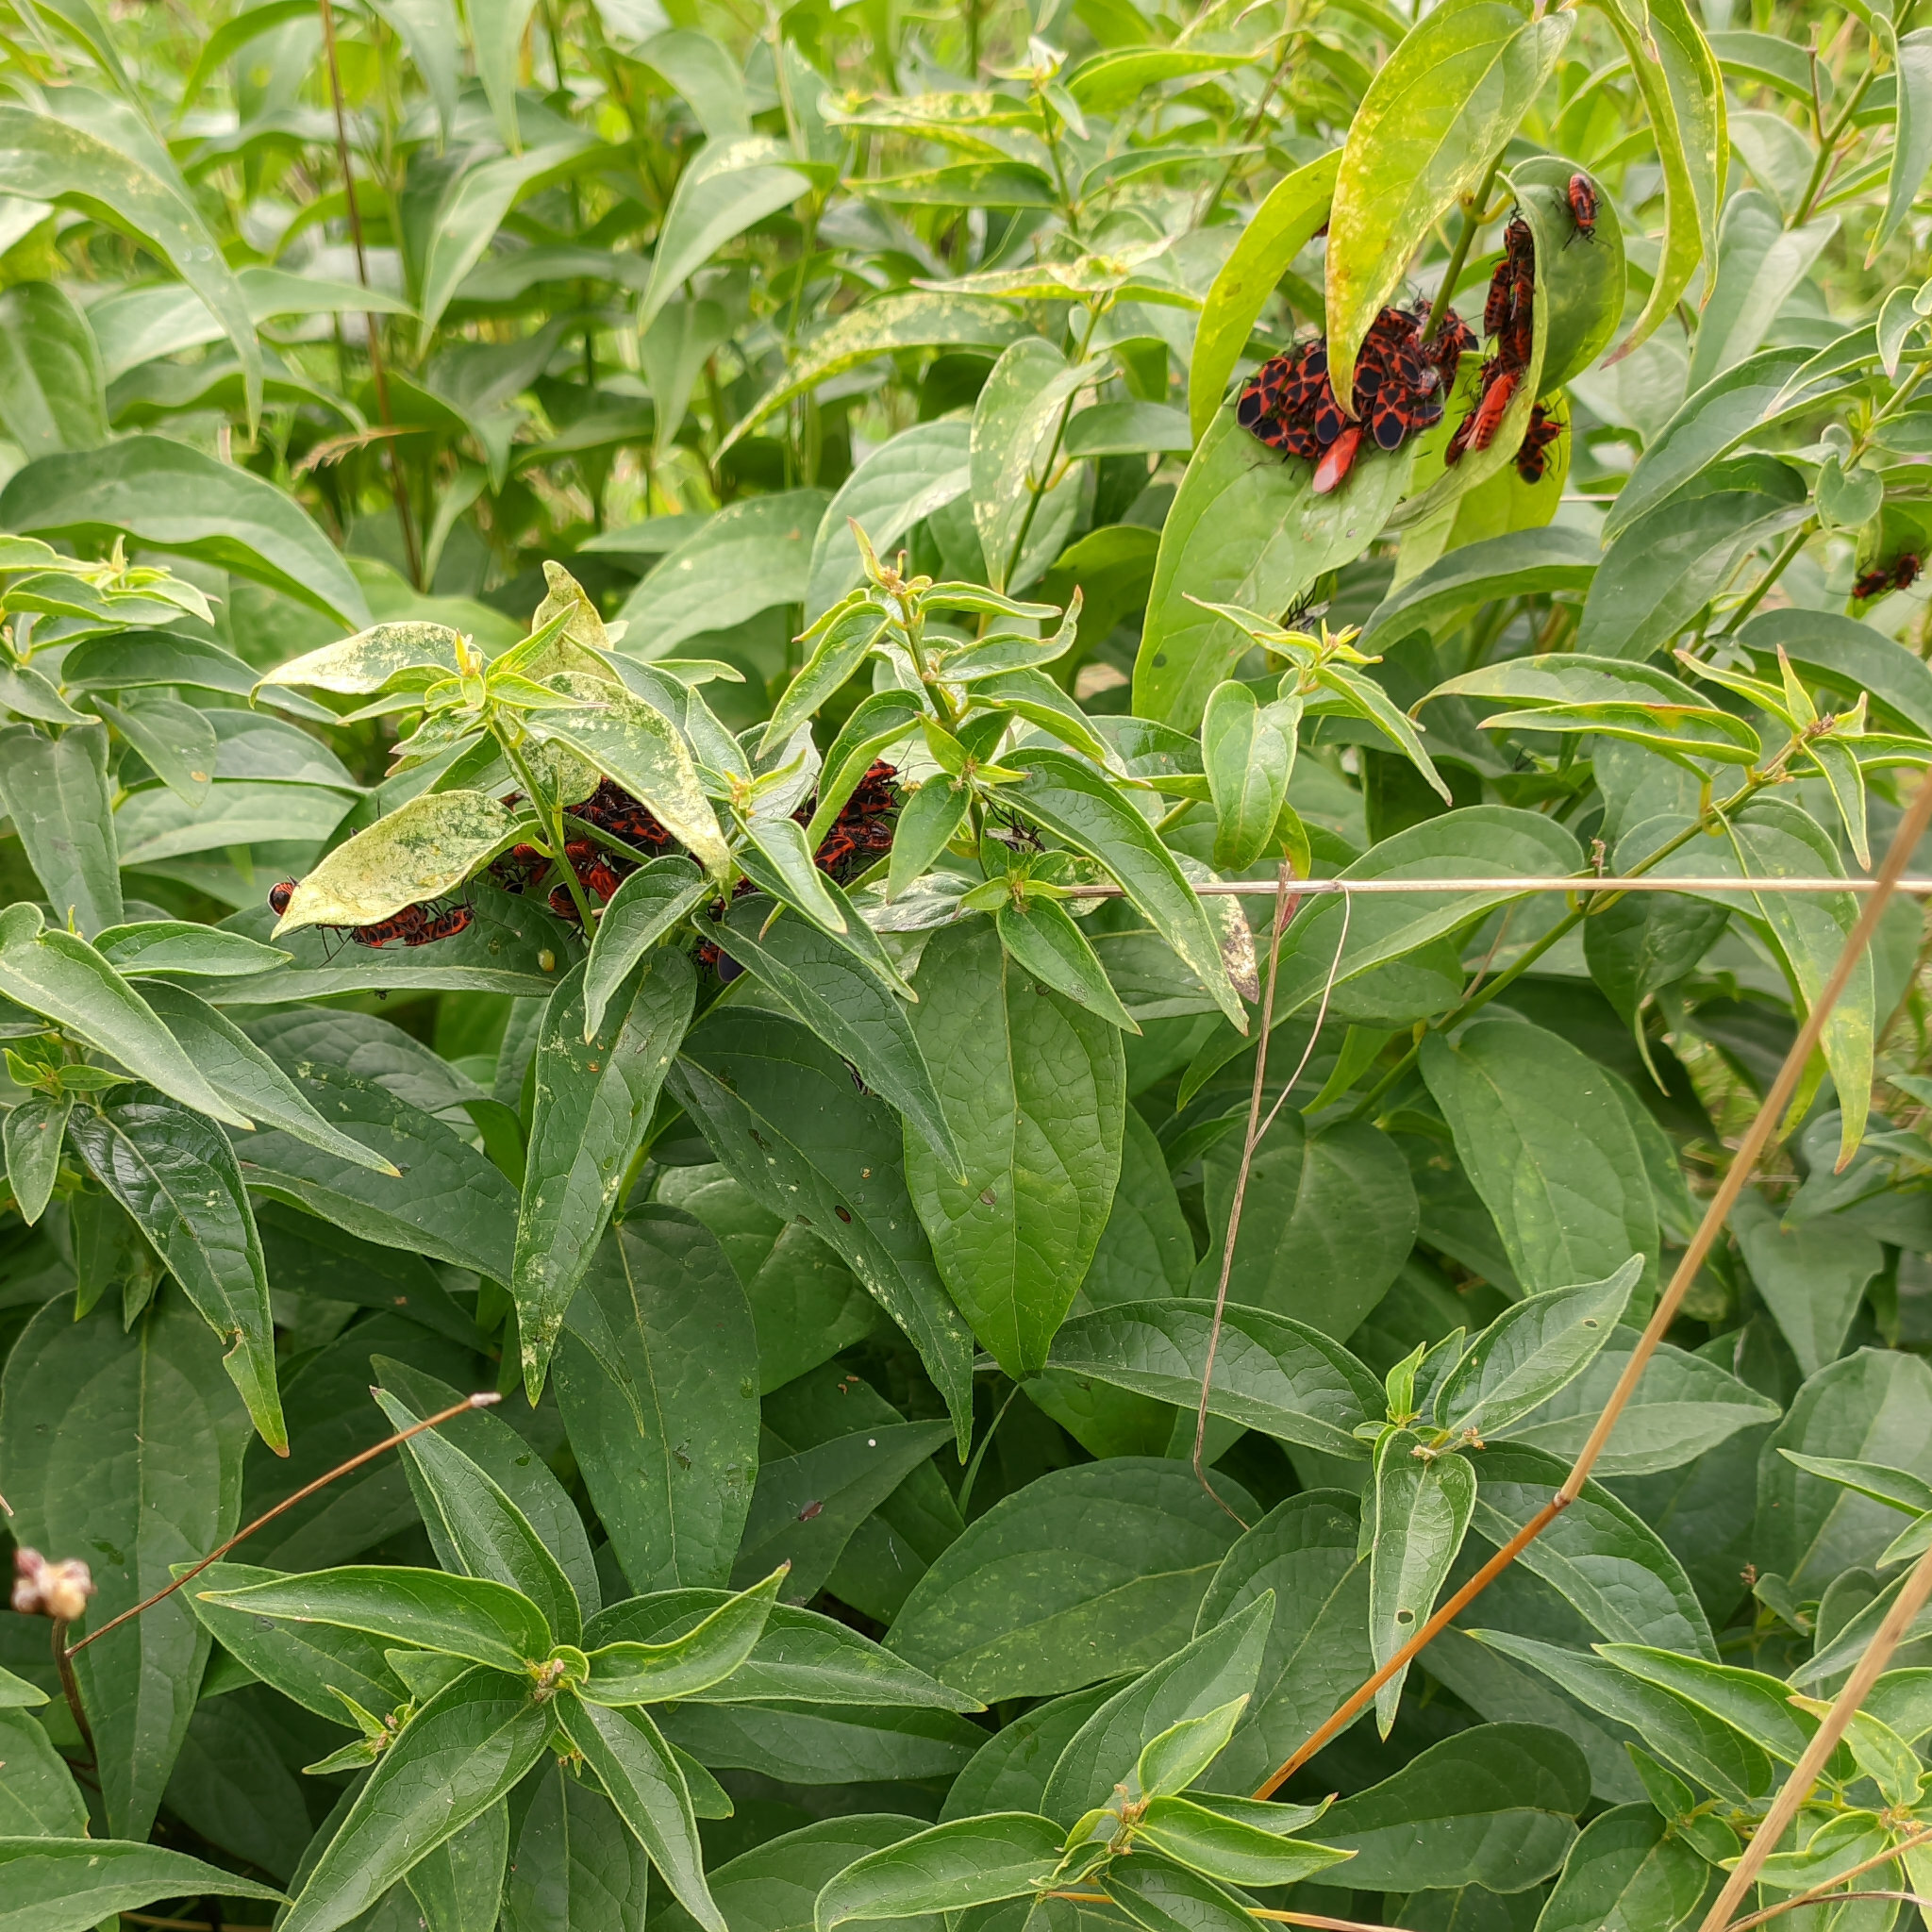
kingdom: Animalia
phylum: Arthropoda
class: Insecta
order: Hemiptera
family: Lygaeidae
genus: Tropidothorax
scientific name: Tropidothorax leucopterus
